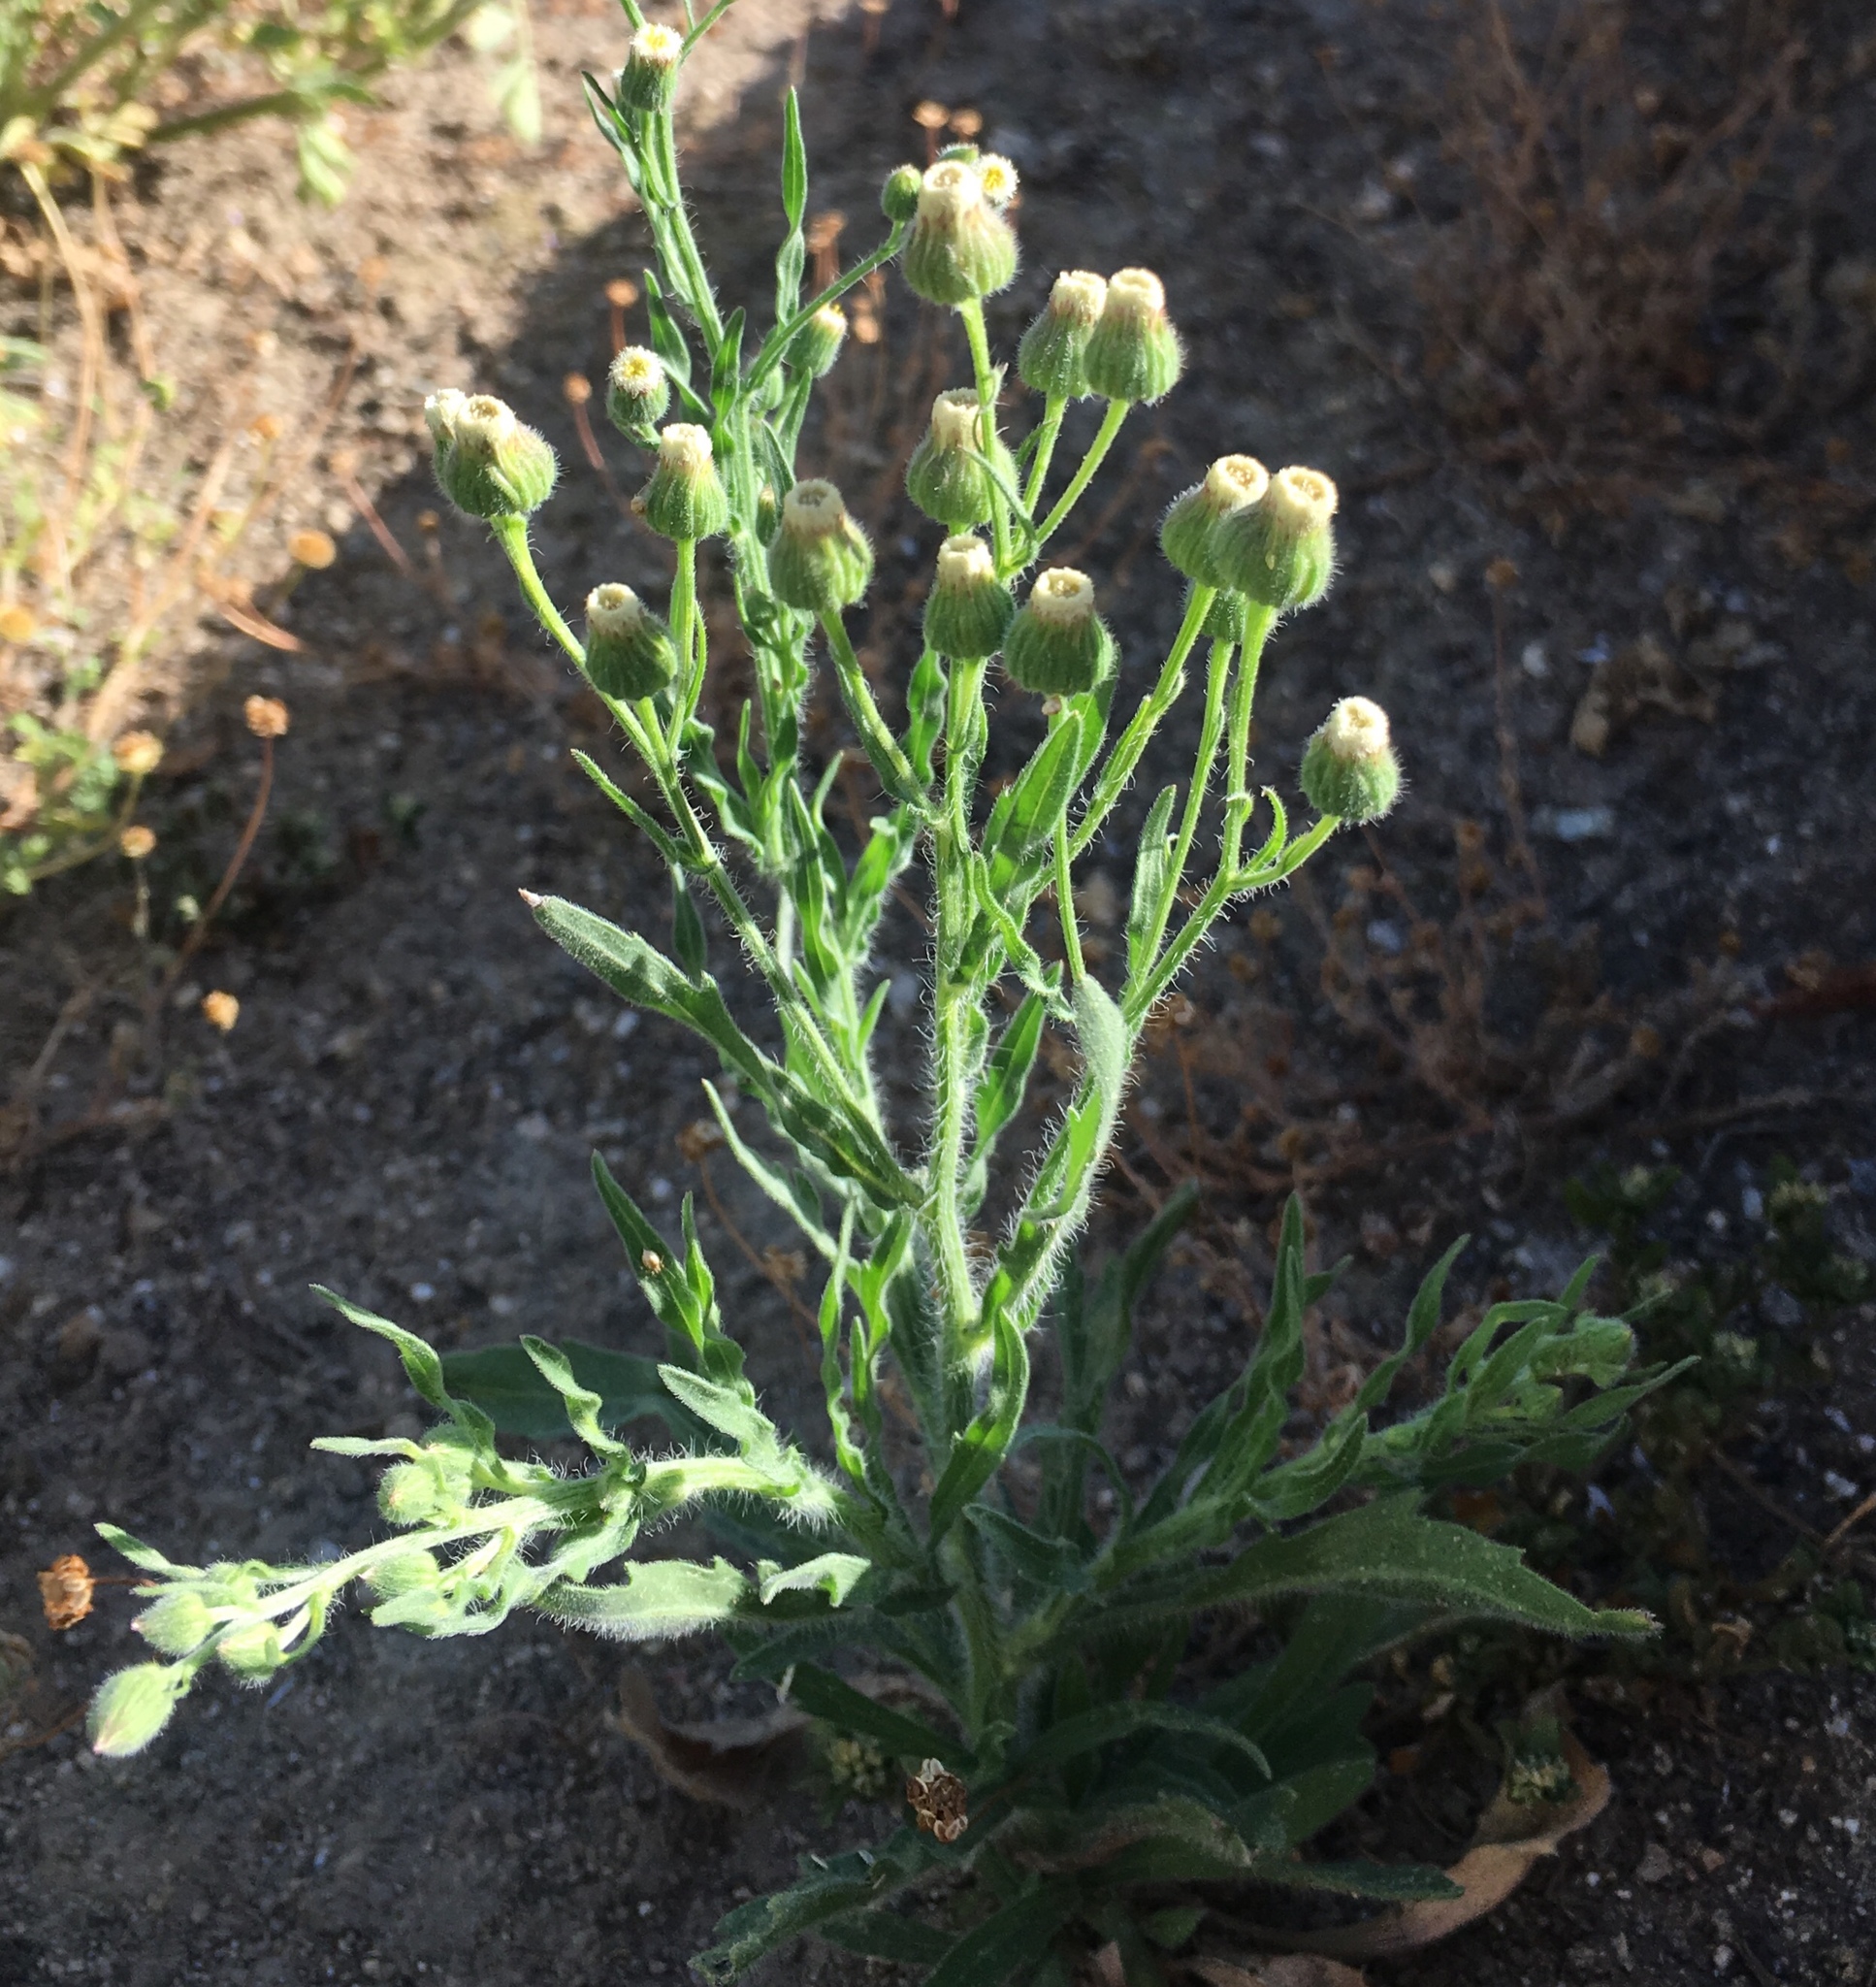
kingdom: Plantae
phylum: Tracheophyta
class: Magnoliopsida
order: Asterales
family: Asteraceae
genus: Erigeron
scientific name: Erigeron bonariensis
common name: Argentine fleabane
